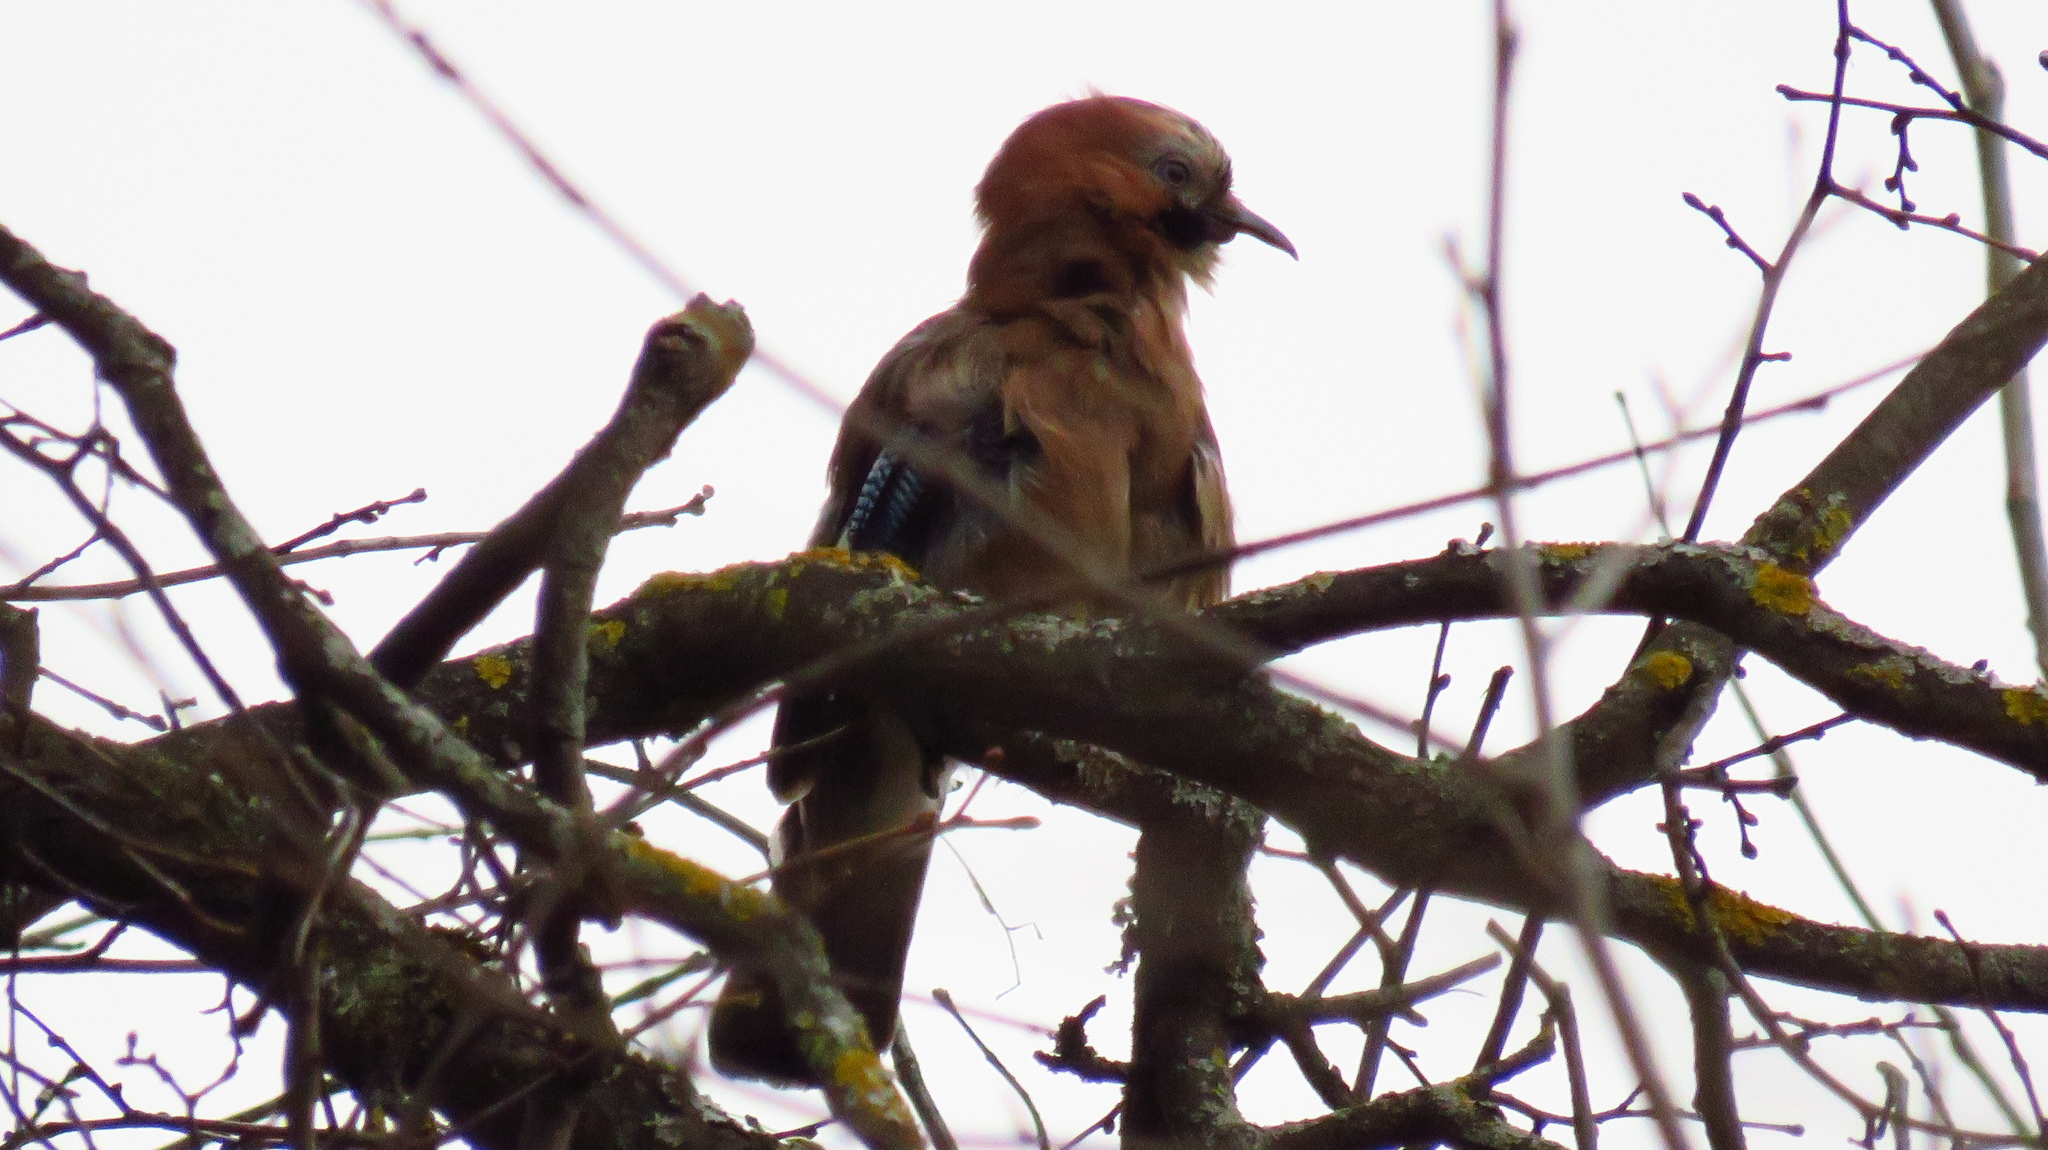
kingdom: Animalia
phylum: Chordata
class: Aves
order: Passeriformes
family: Corvidae
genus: Garrulus
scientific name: Garrulus glandarius
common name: Eurasian jay
